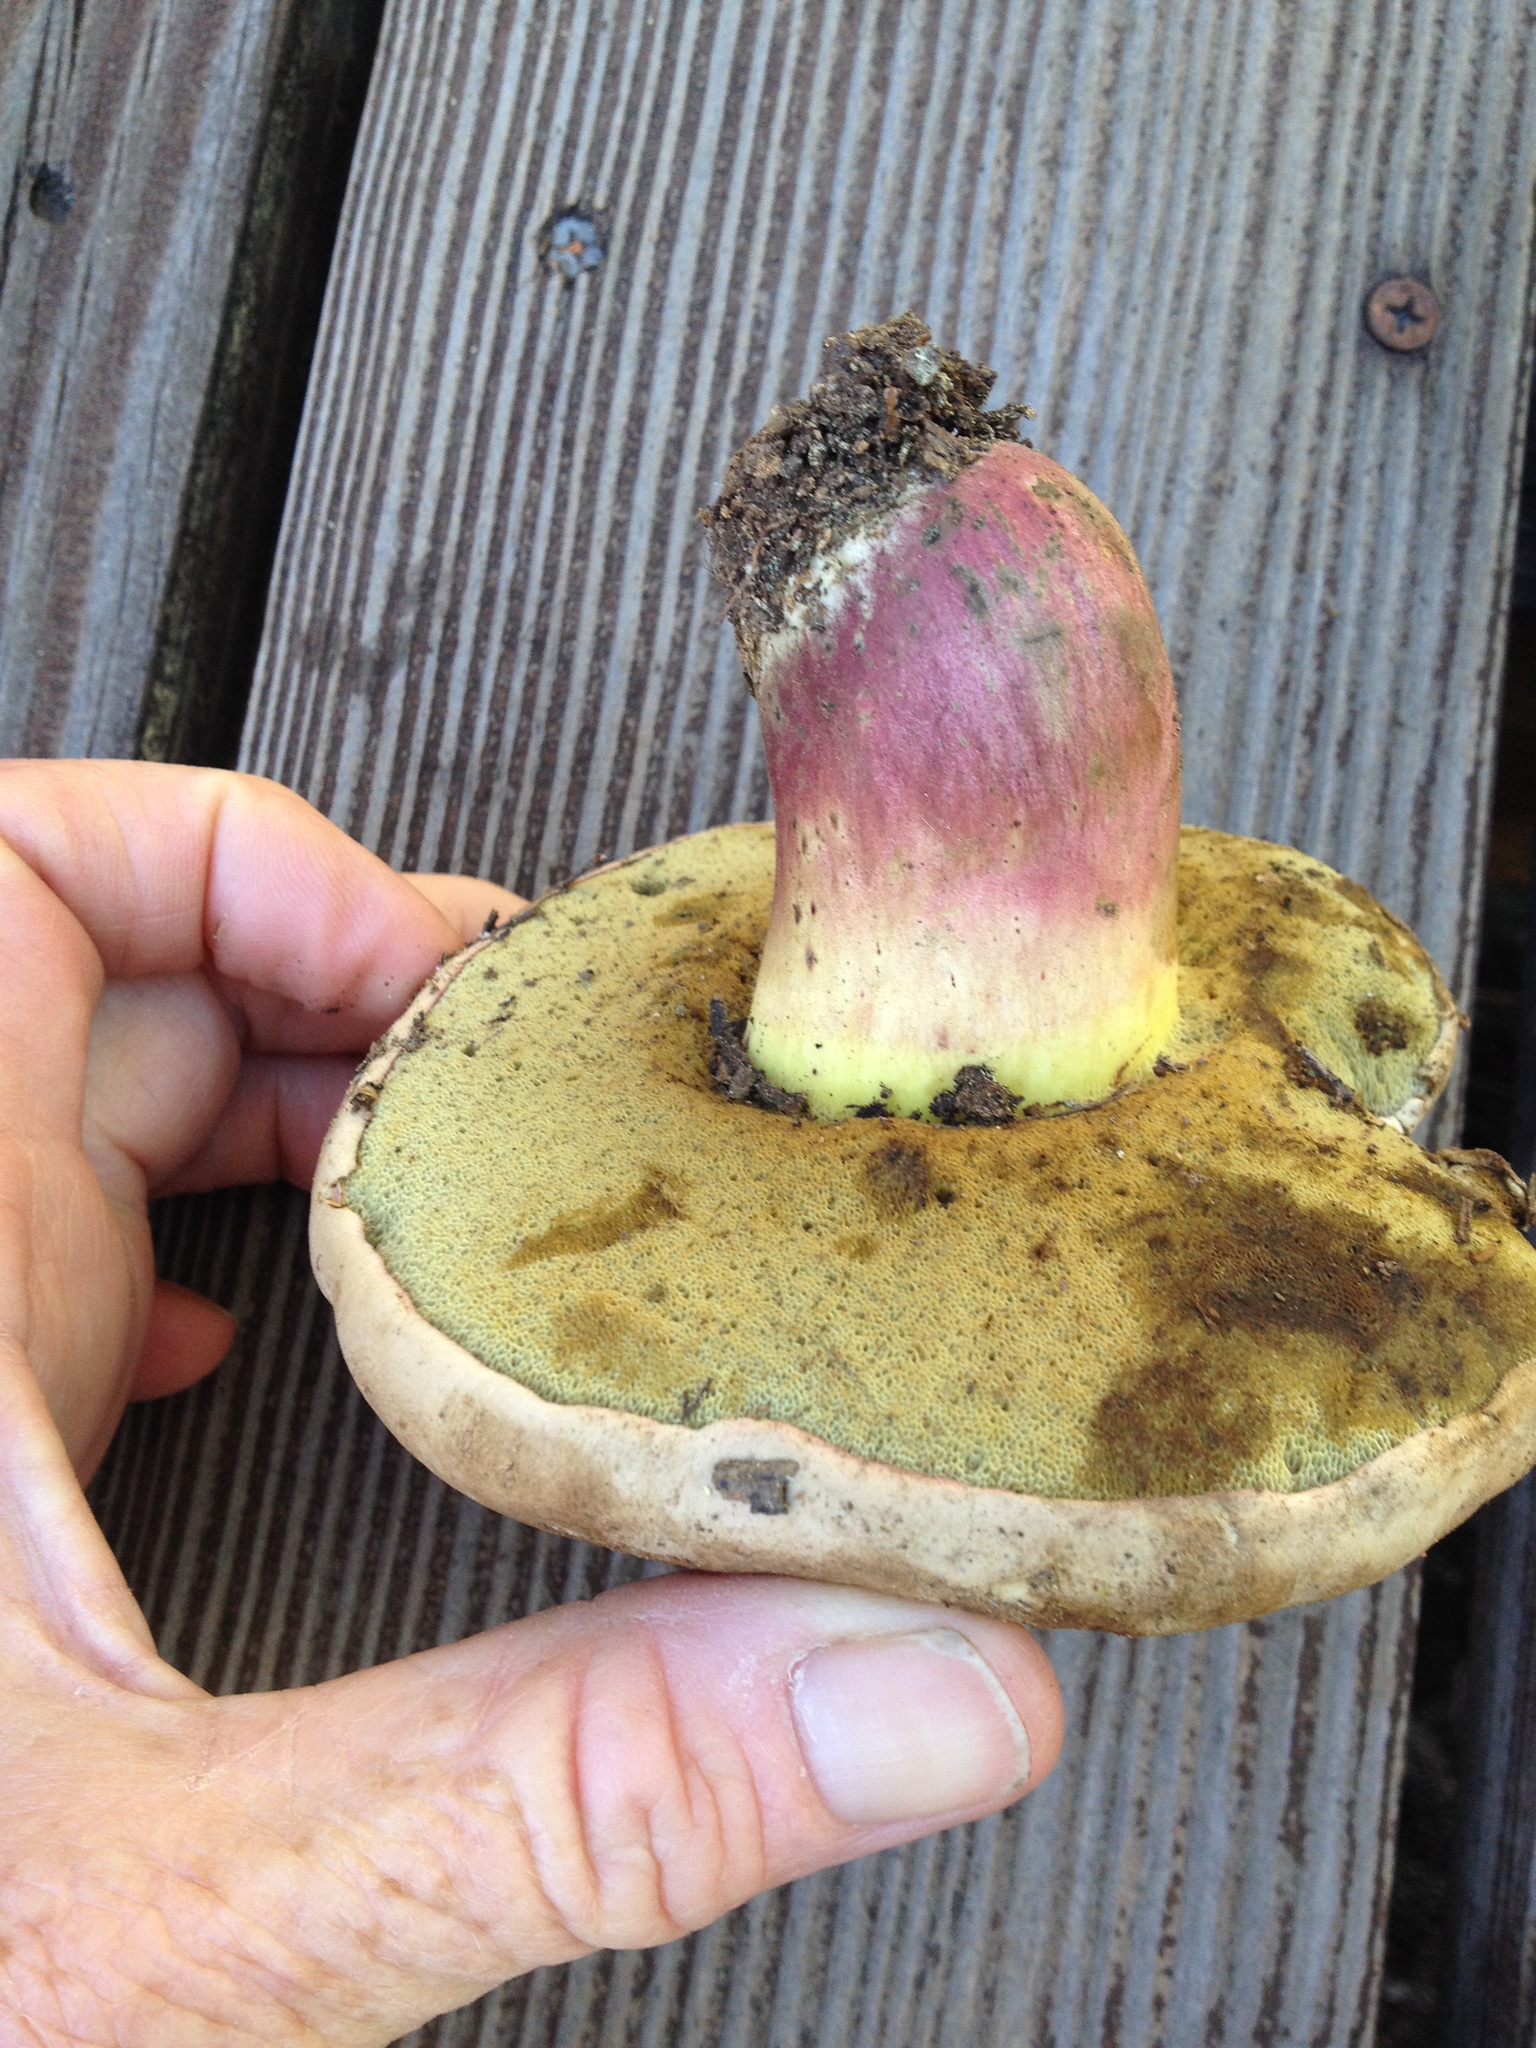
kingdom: Fungi
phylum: Basidiomycota
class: Agaricomycetes
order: Boletales
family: Boletaceae
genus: Caloboletus
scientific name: Caloboletus rubripes
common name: Red-footed bitter bolete
